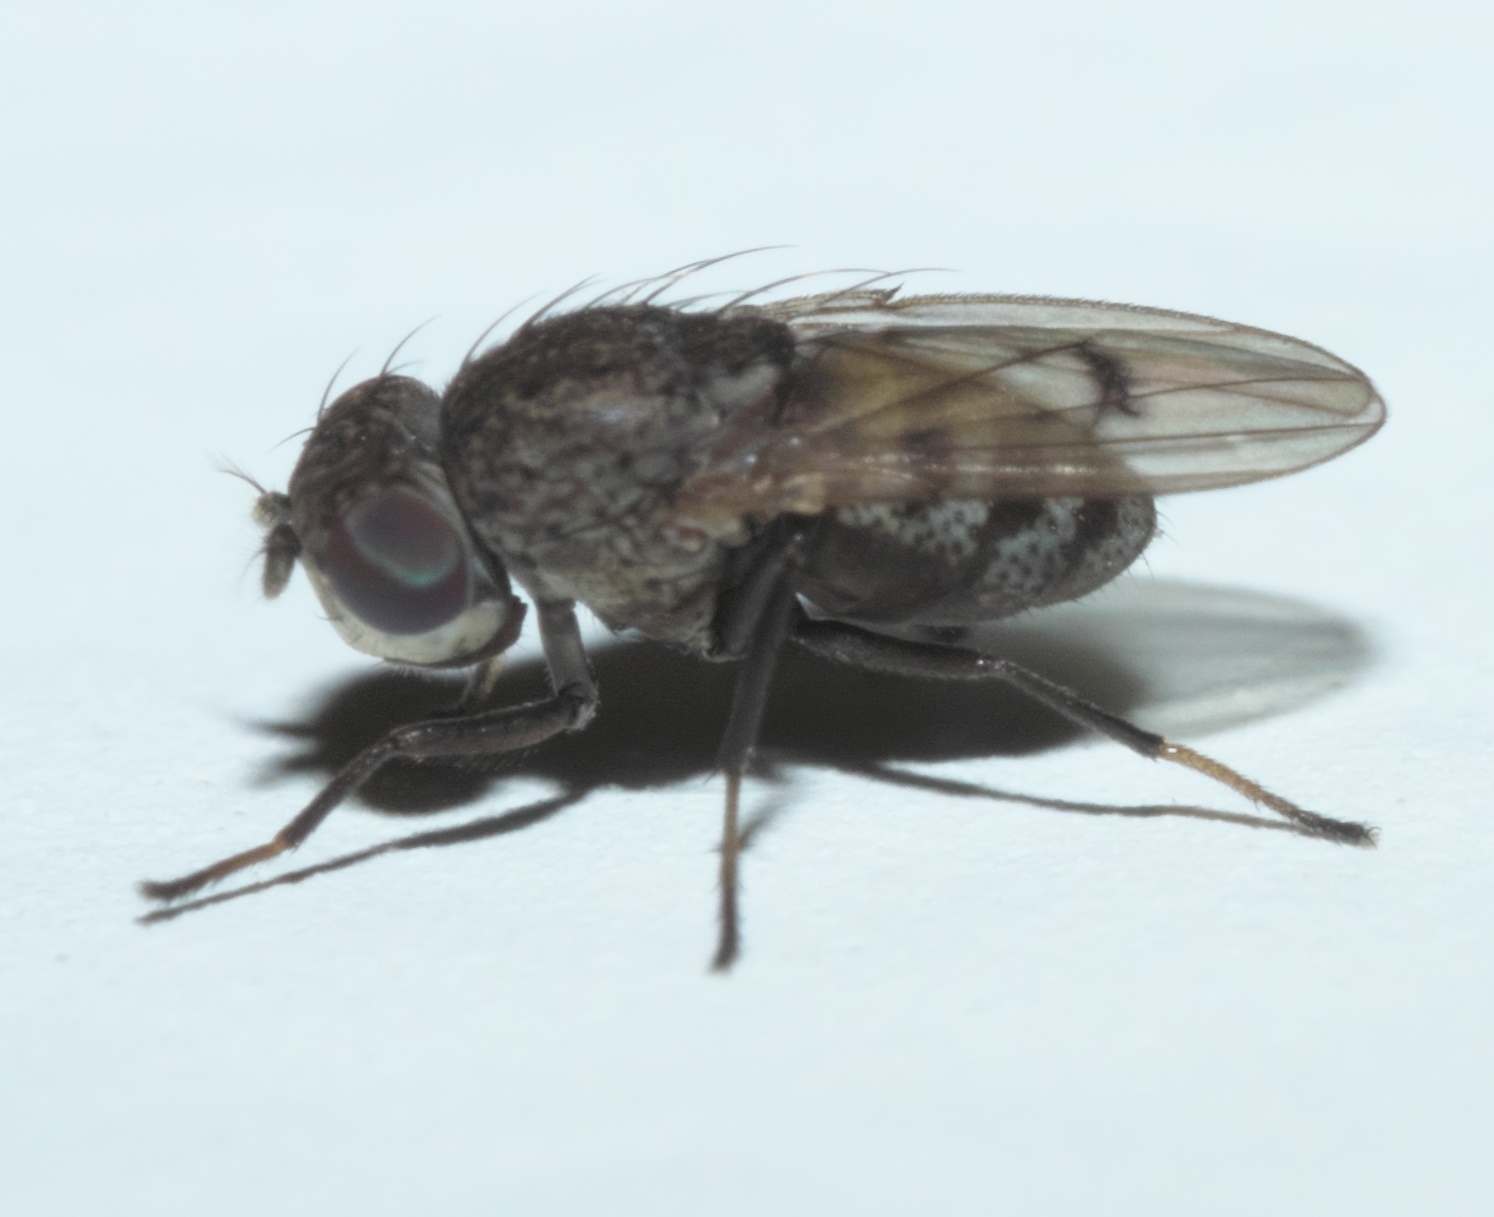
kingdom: Animalia
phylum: Arthropoda
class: Insecta
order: Diptera
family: Ephydridae
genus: Paralimna
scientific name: Paralimna punctipennis
